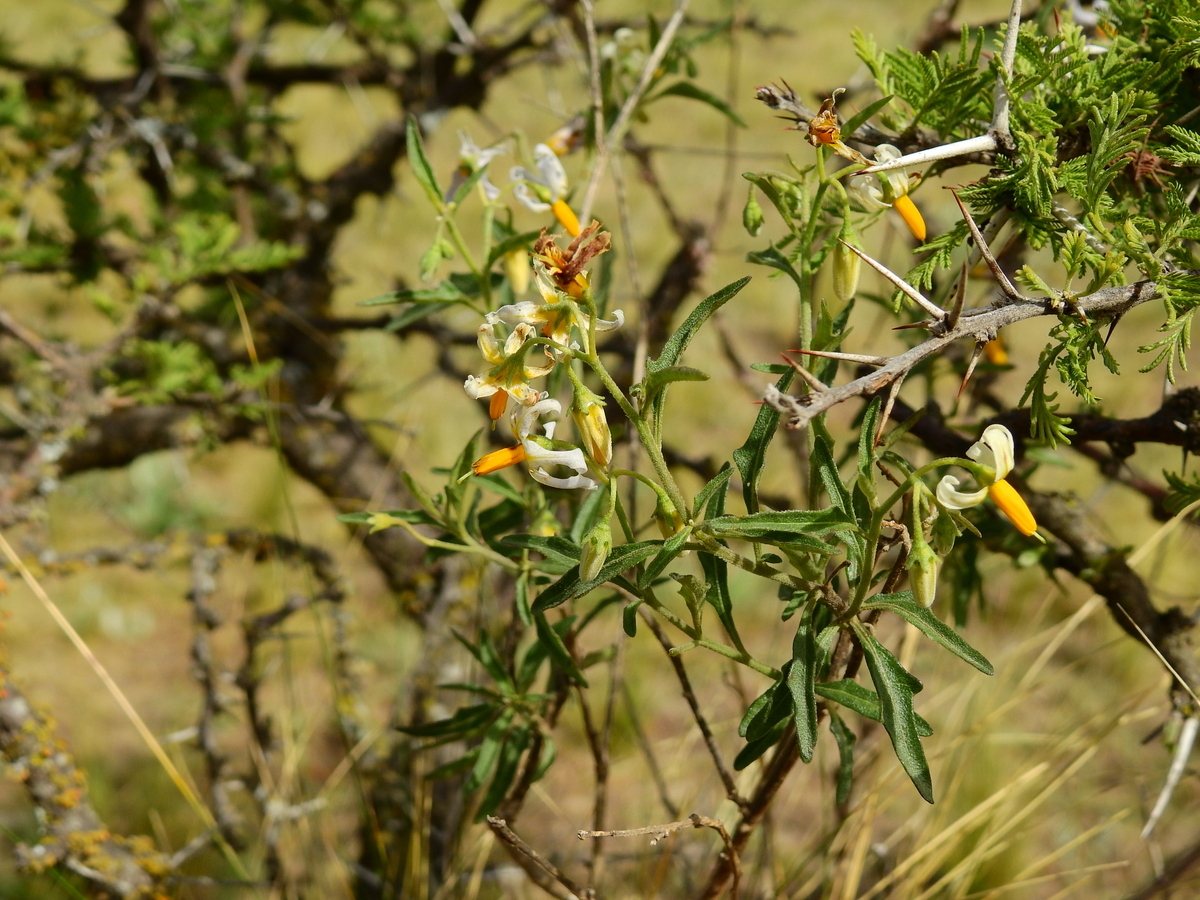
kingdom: Plantae
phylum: Tracheophyta
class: Magnoliopsida
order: Solanales
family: Solanaceae
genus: Solanum
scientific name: Solanum salicifolium
